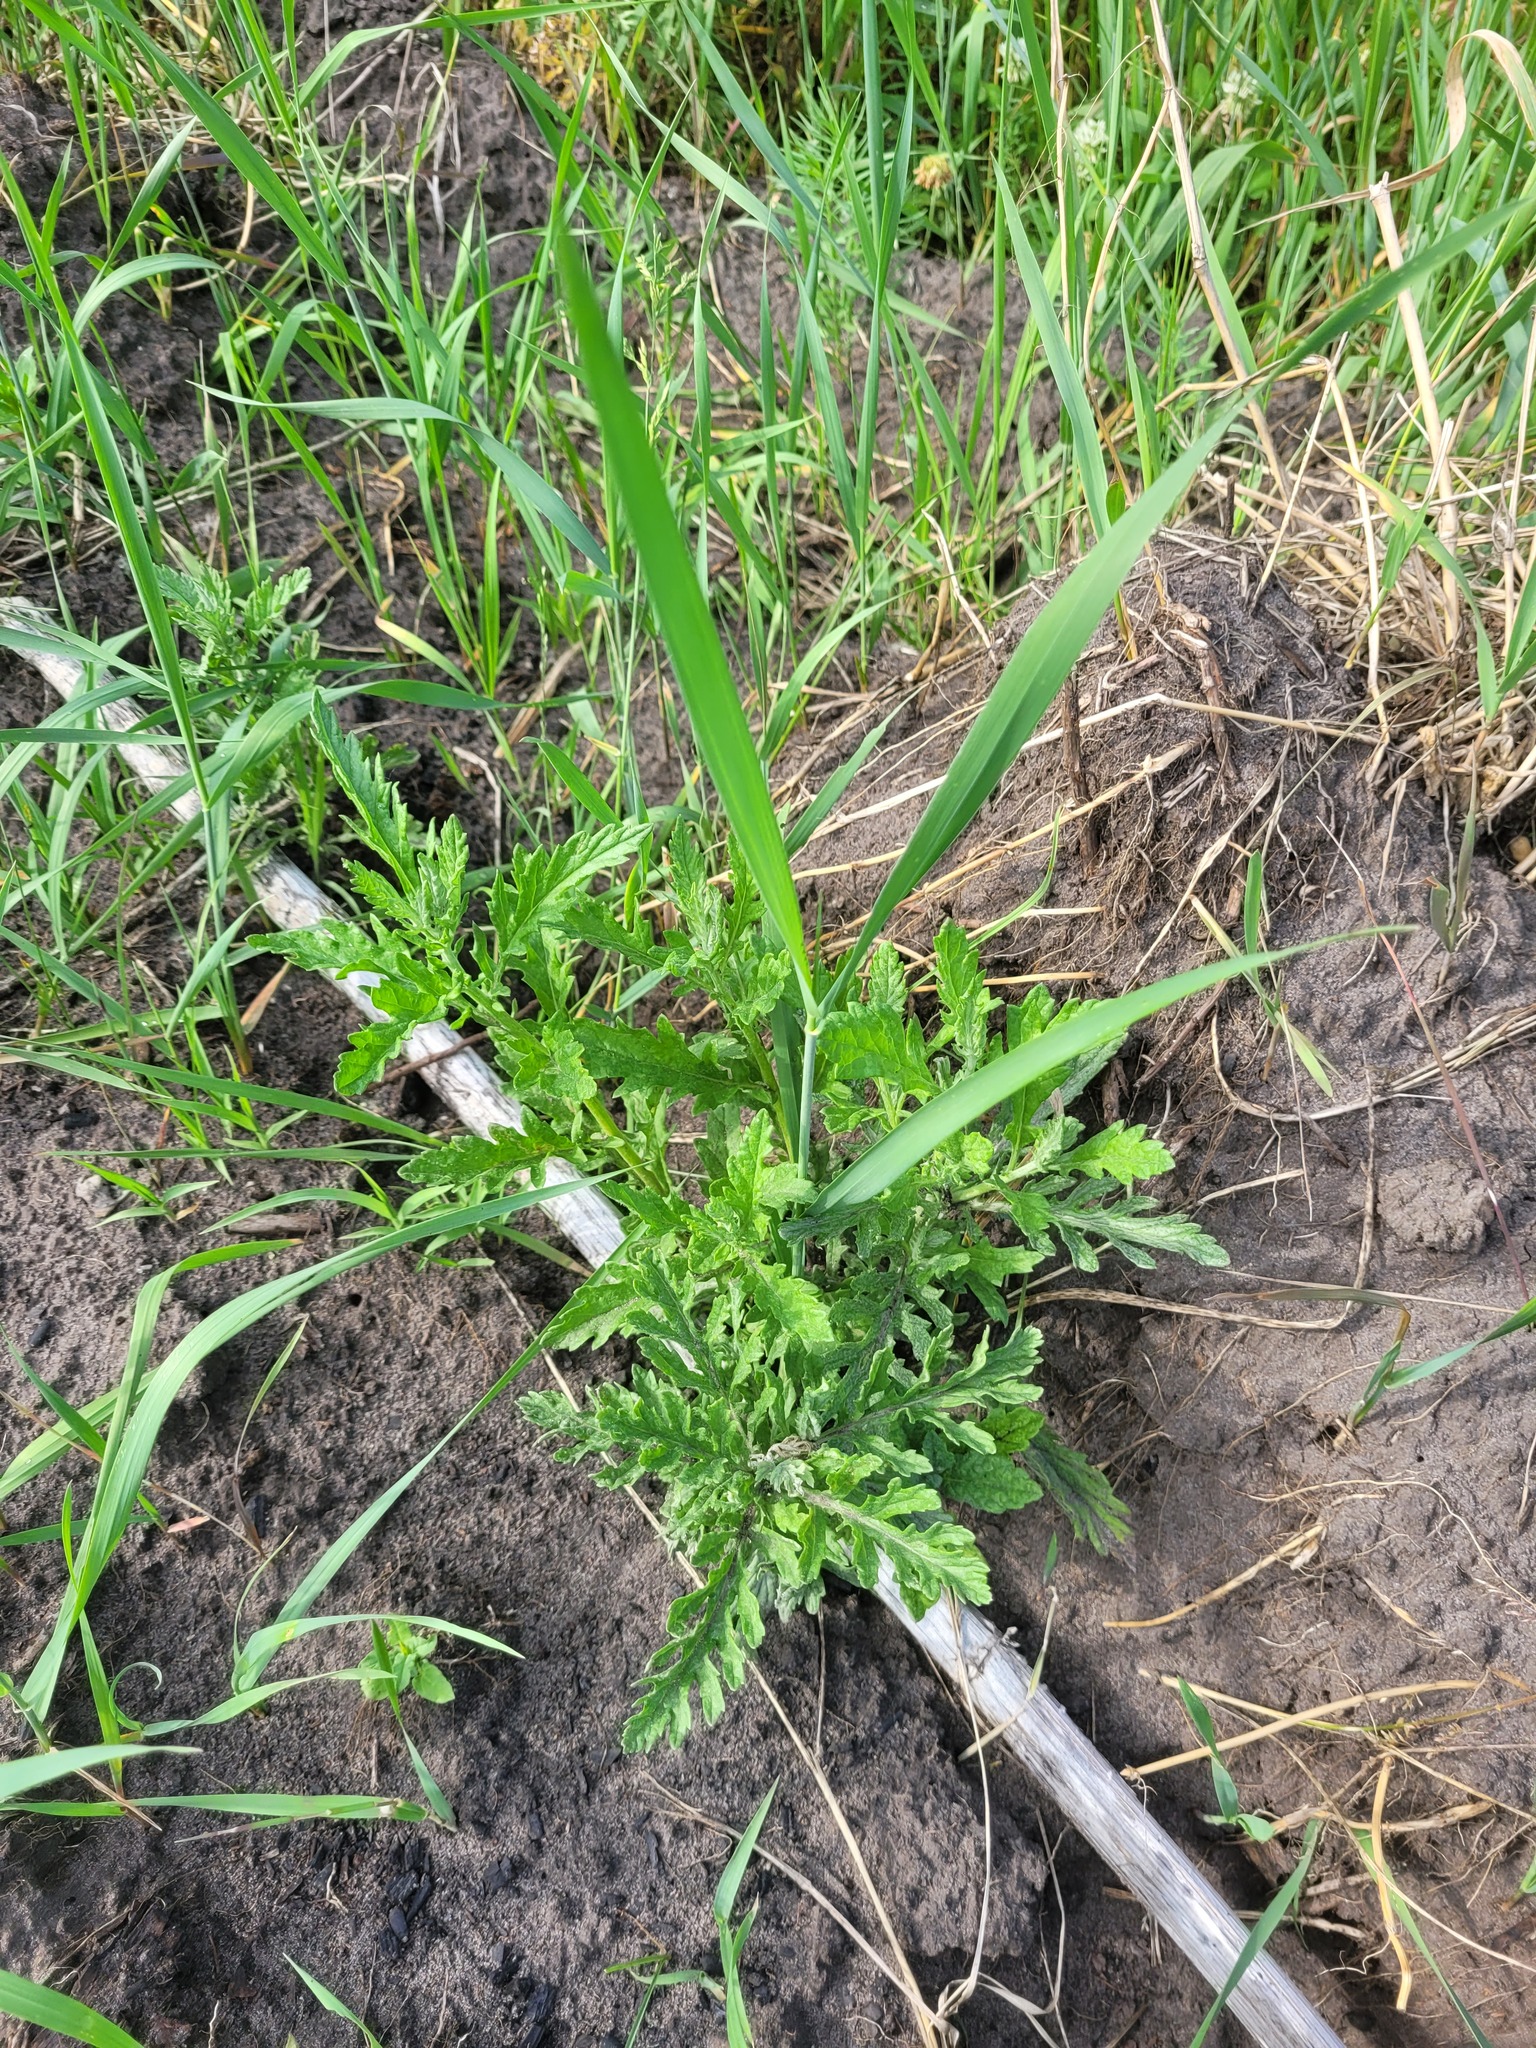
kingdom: Plantae
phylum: Tracheophyta
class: Magnoliopsida
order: Asterales
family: Asteraceae
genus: Jacobaea
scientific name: Jacobaea erucifolia
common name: Hoary ragwort
